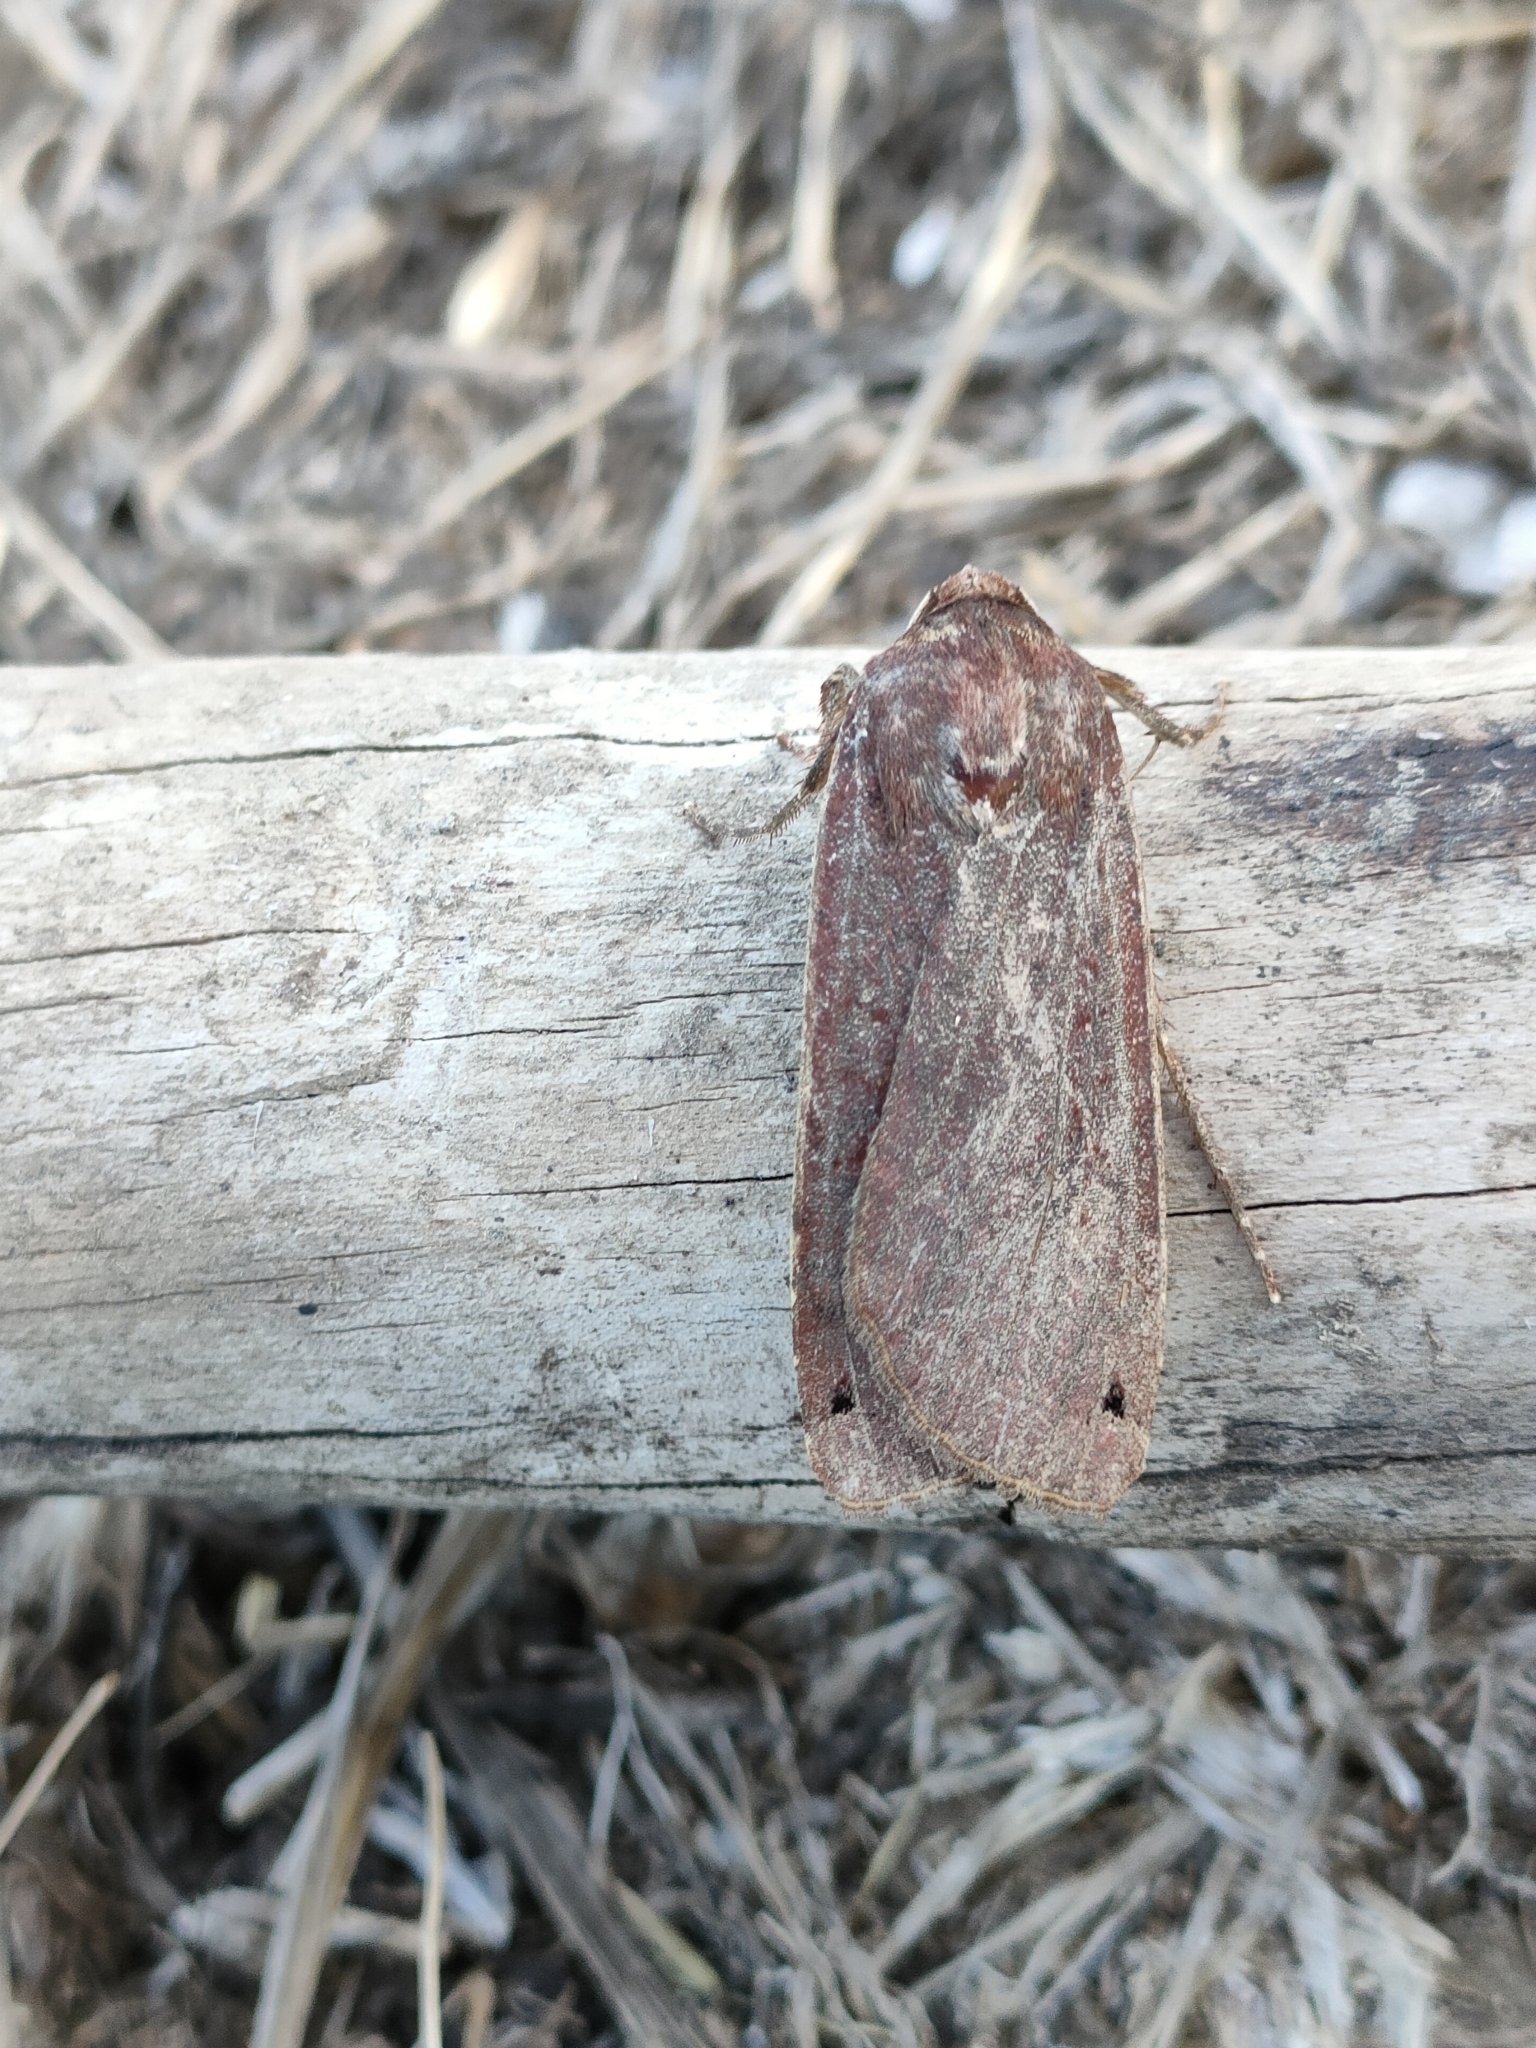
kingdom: Animalia
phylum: Arthropoda
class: Insecta
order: Lepidoptera
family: Noctuidae
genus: Noctua
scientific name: Noctua pronuba
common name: Large yellow underwing
